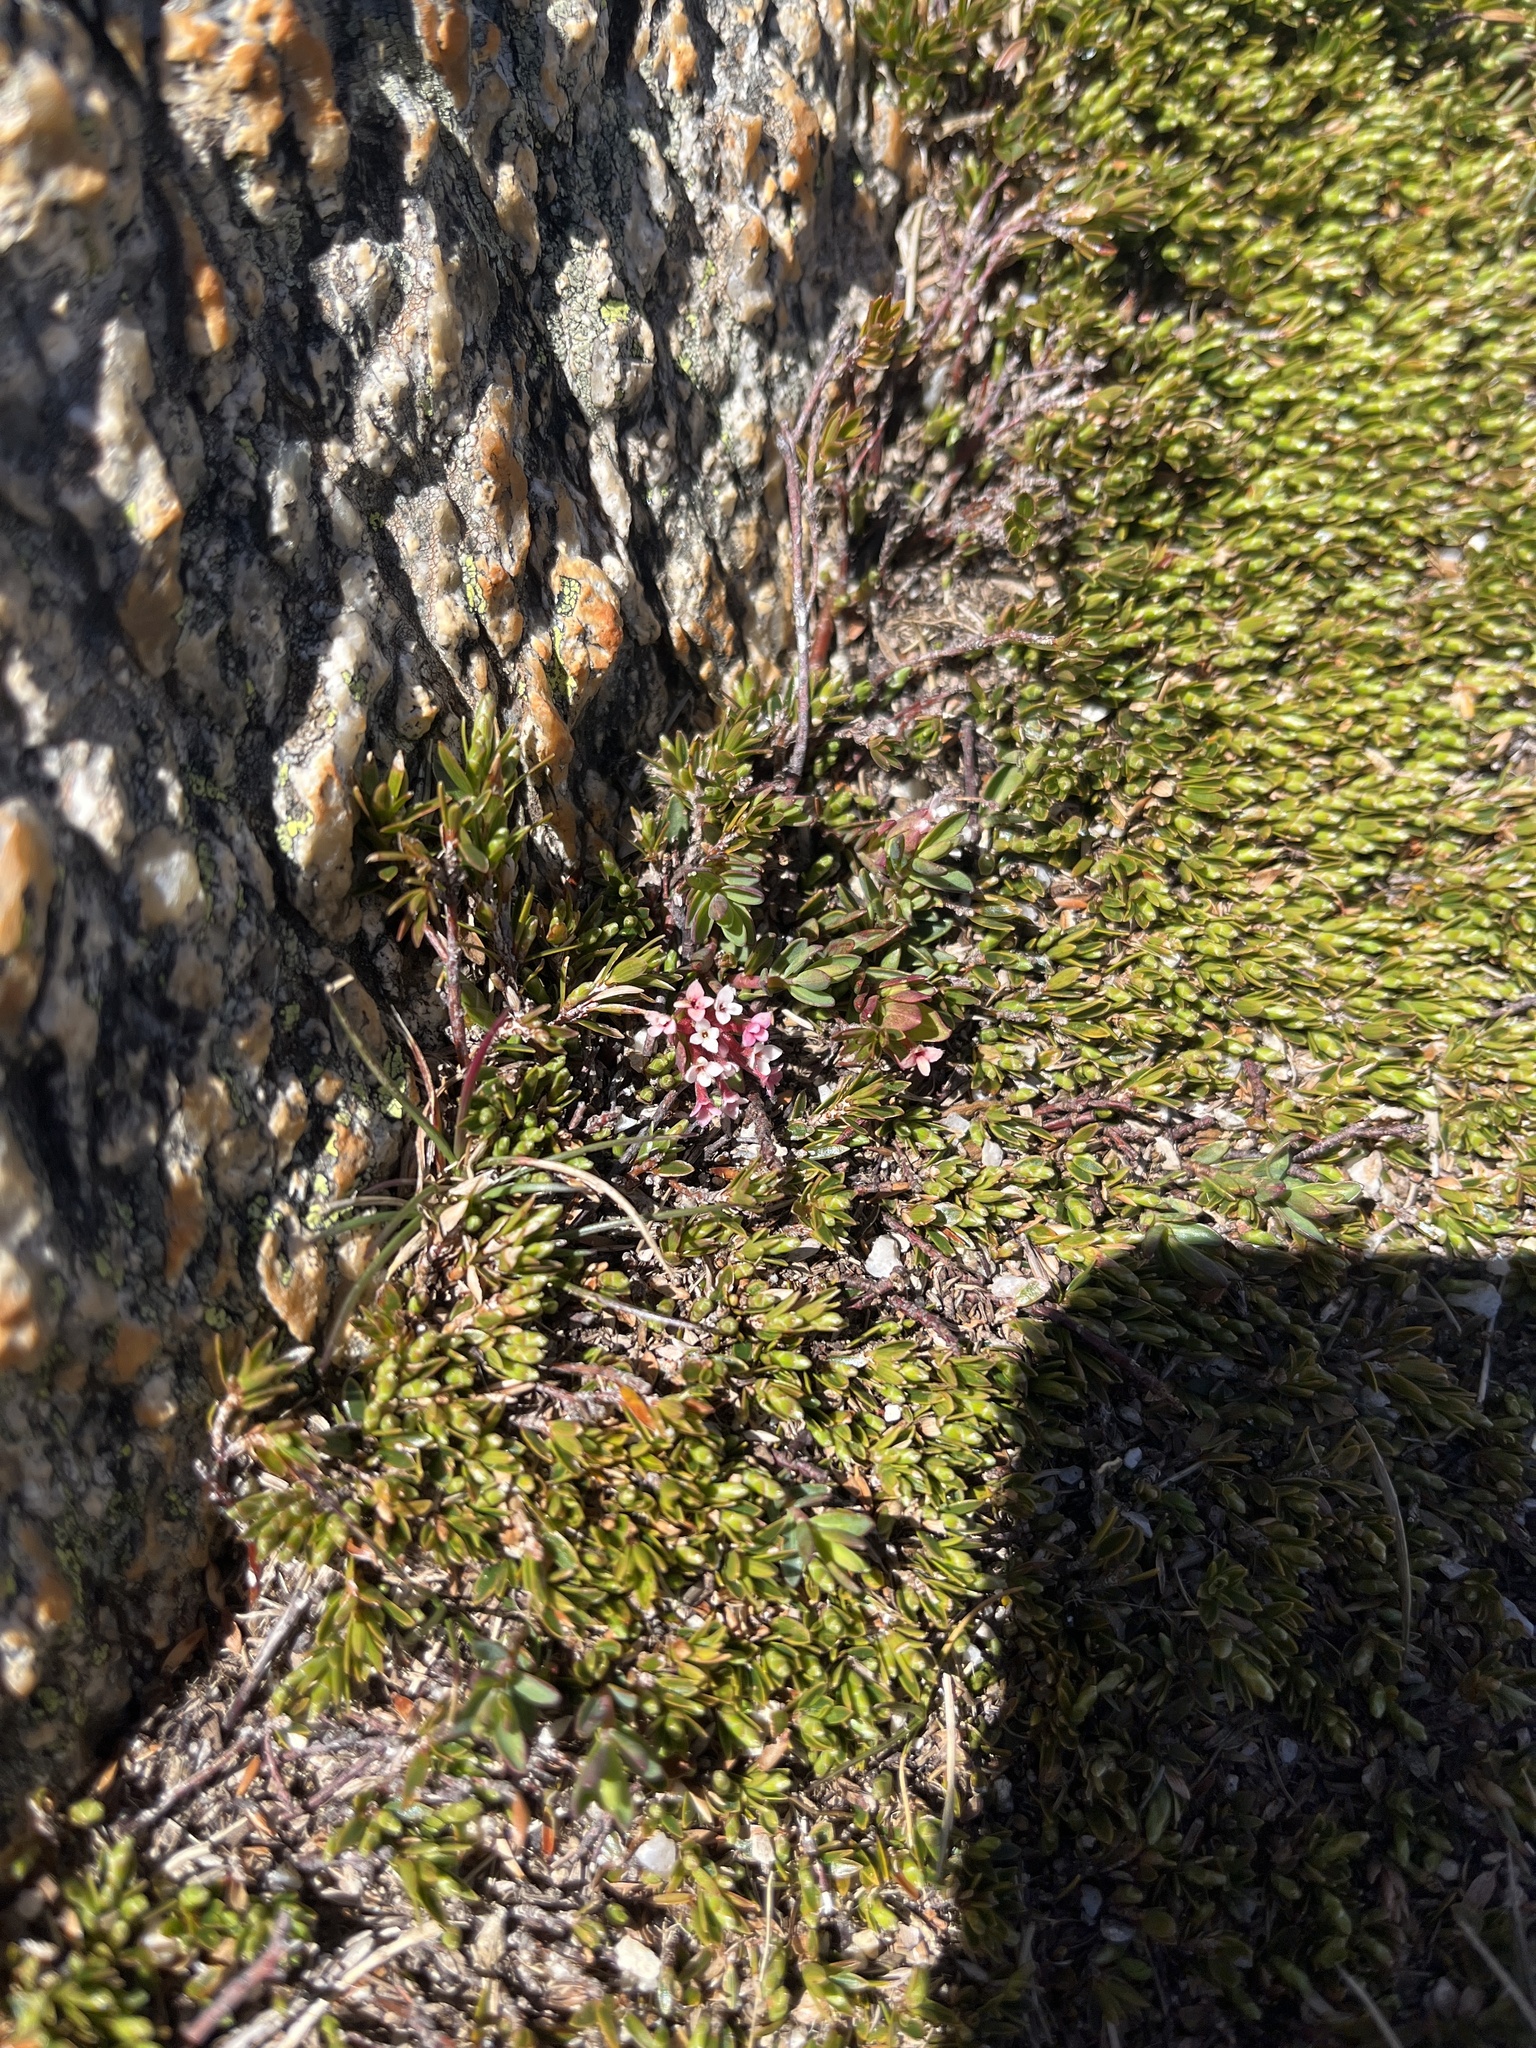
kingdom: Plantae
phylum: Tracheophyta
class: Magnoliopsida
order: Malvales
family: Thymelaeaceae
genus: Pimelea
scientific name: Pimelea alpina
